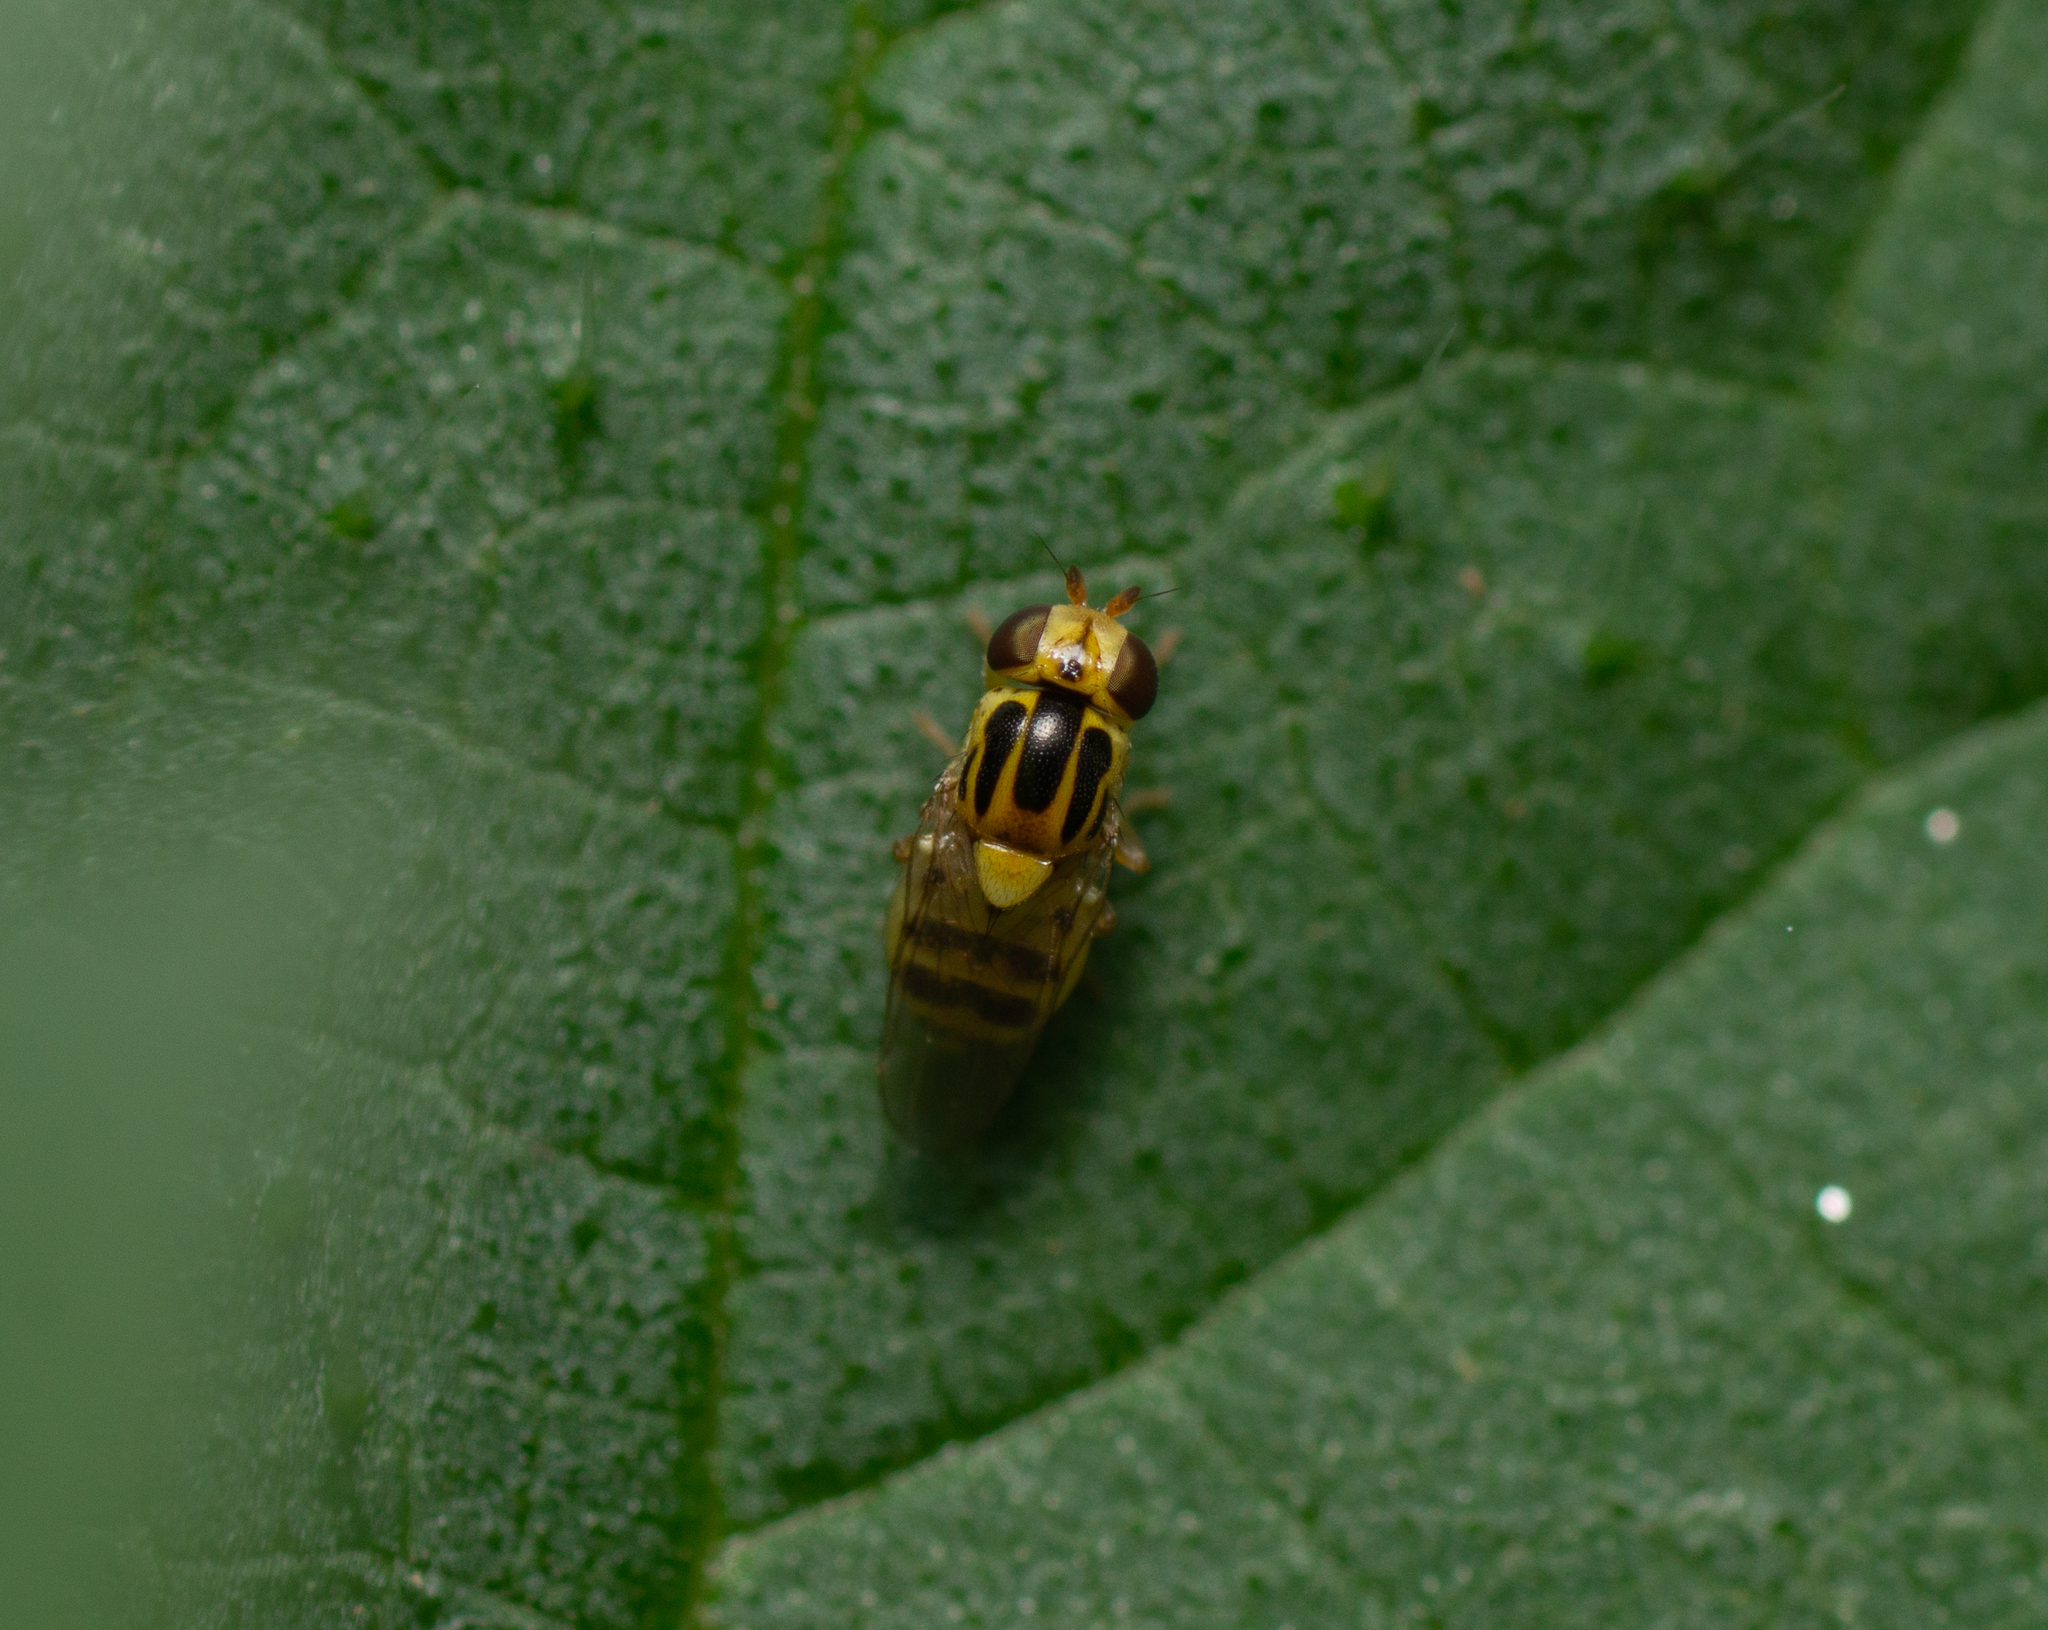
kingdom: Animalia
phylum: Arthropoda
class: Insecta
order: Diptera
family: Chloropidae
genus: Thaumatomyia
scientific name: Thaumatomyia glabra
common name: Chloropid fly
